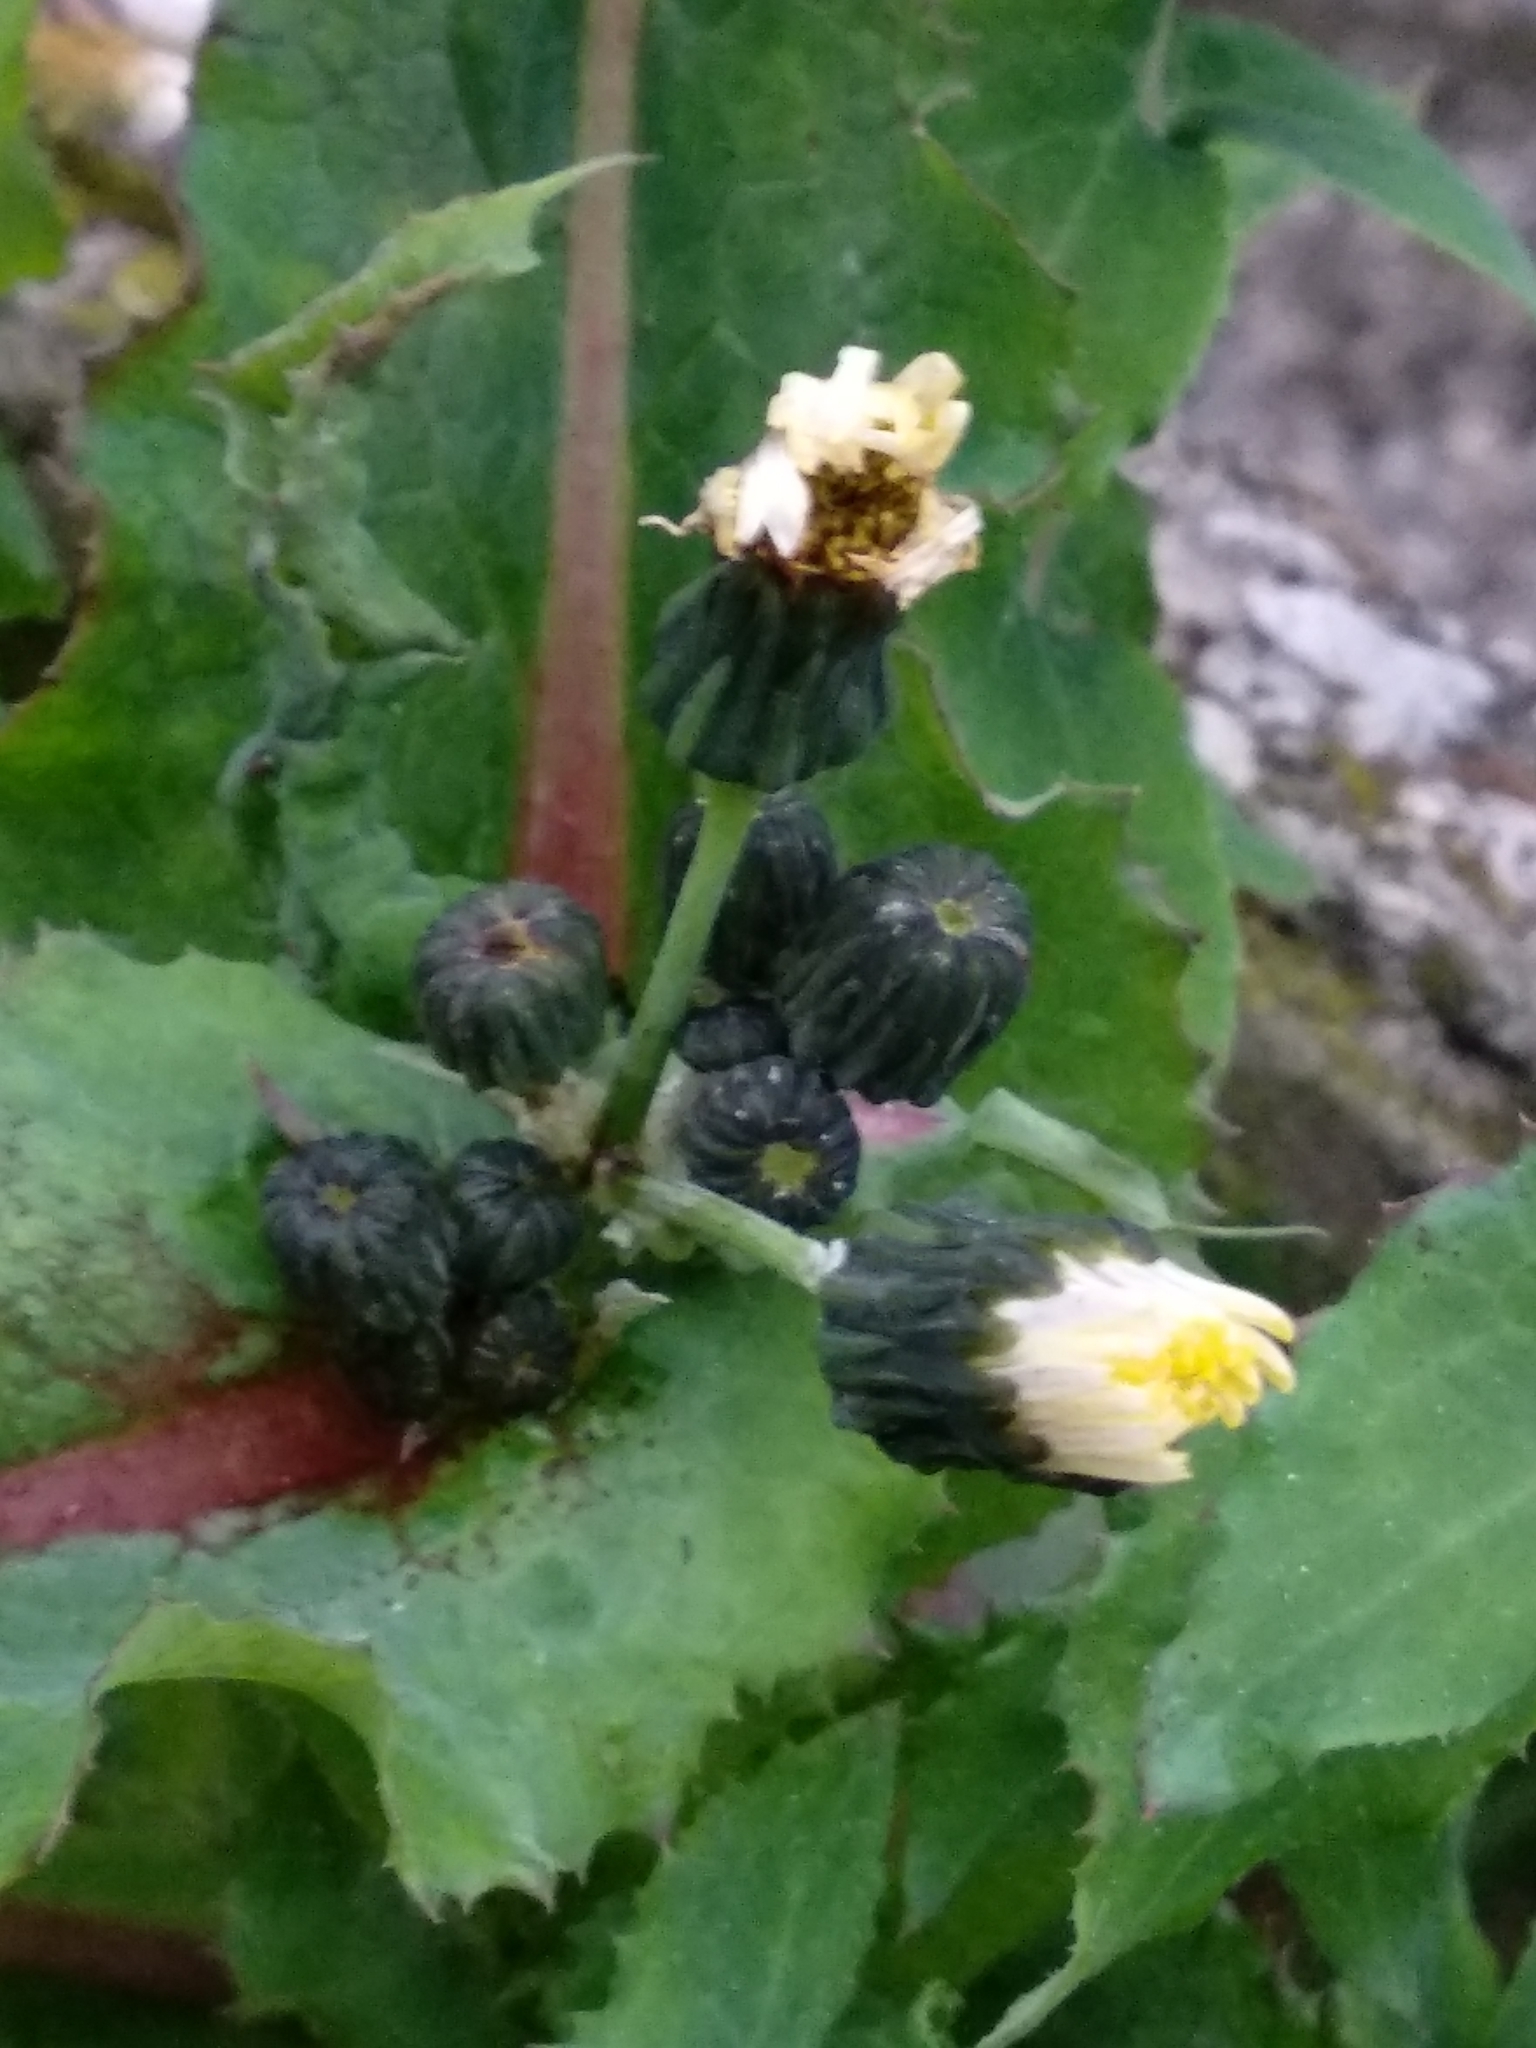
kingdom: Plantae
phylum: Tracheophyta
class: Magnoliopsida
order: Asterales
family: Asteraceae
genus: Sonchus
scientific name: Sonchus oleraceus
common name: Common sowthistle
